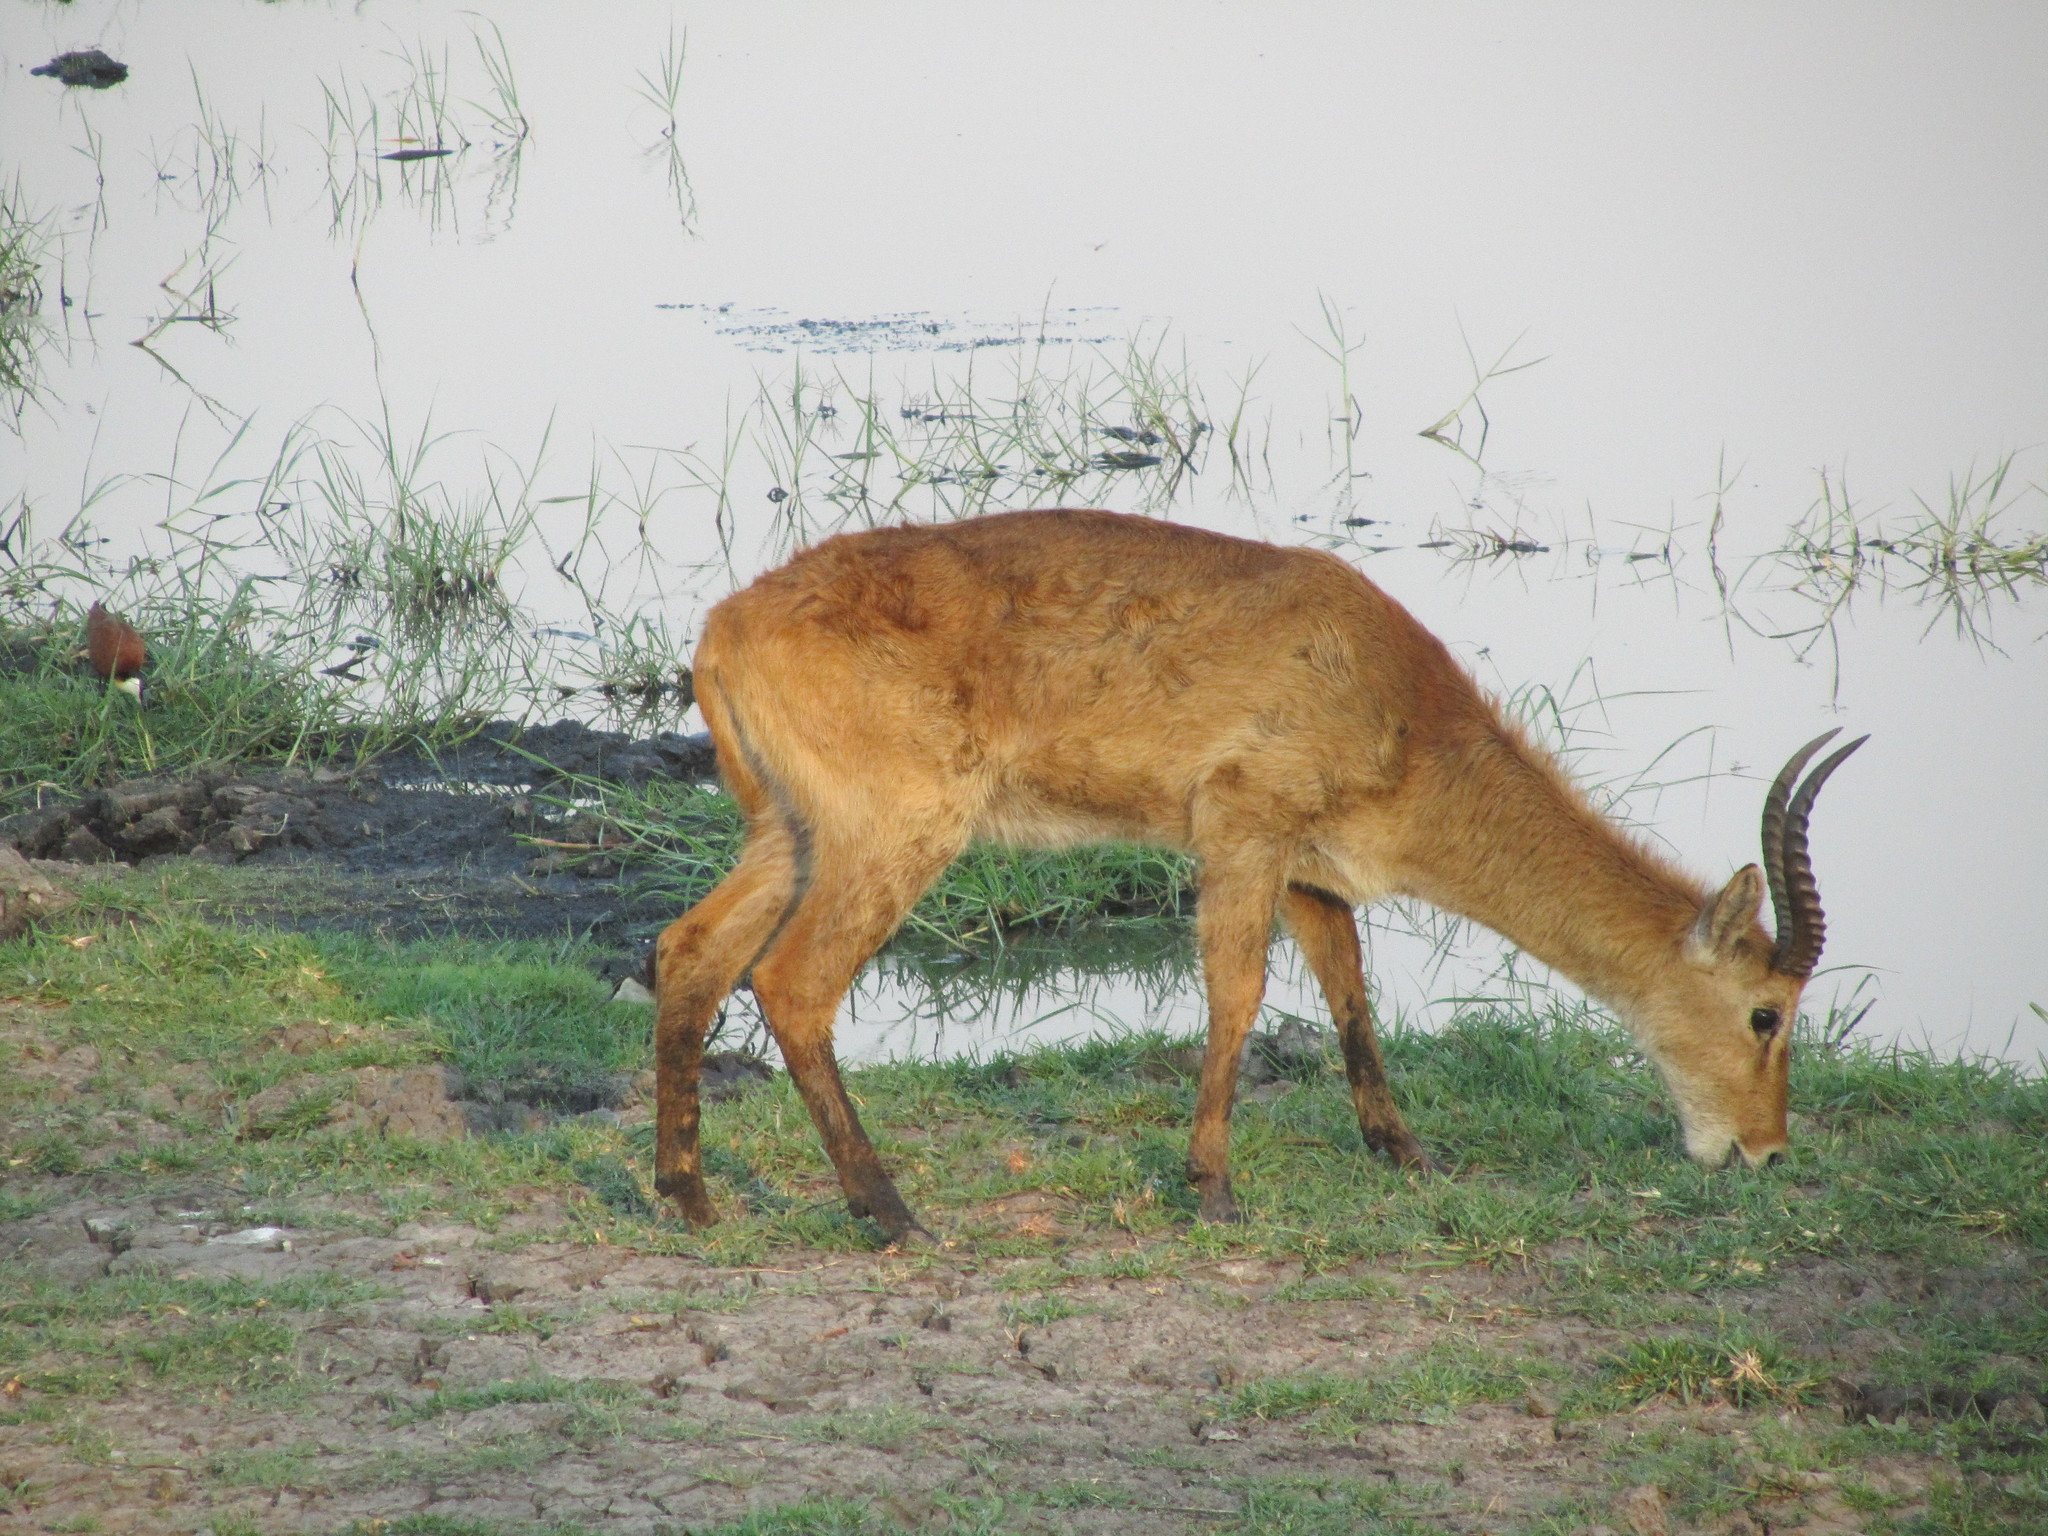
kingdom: Animalia
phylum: Chordata
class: Mammalia
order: Artiodactyla
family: Bovidae
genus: Kobus
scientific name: Kobus vardonii
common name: Puku
